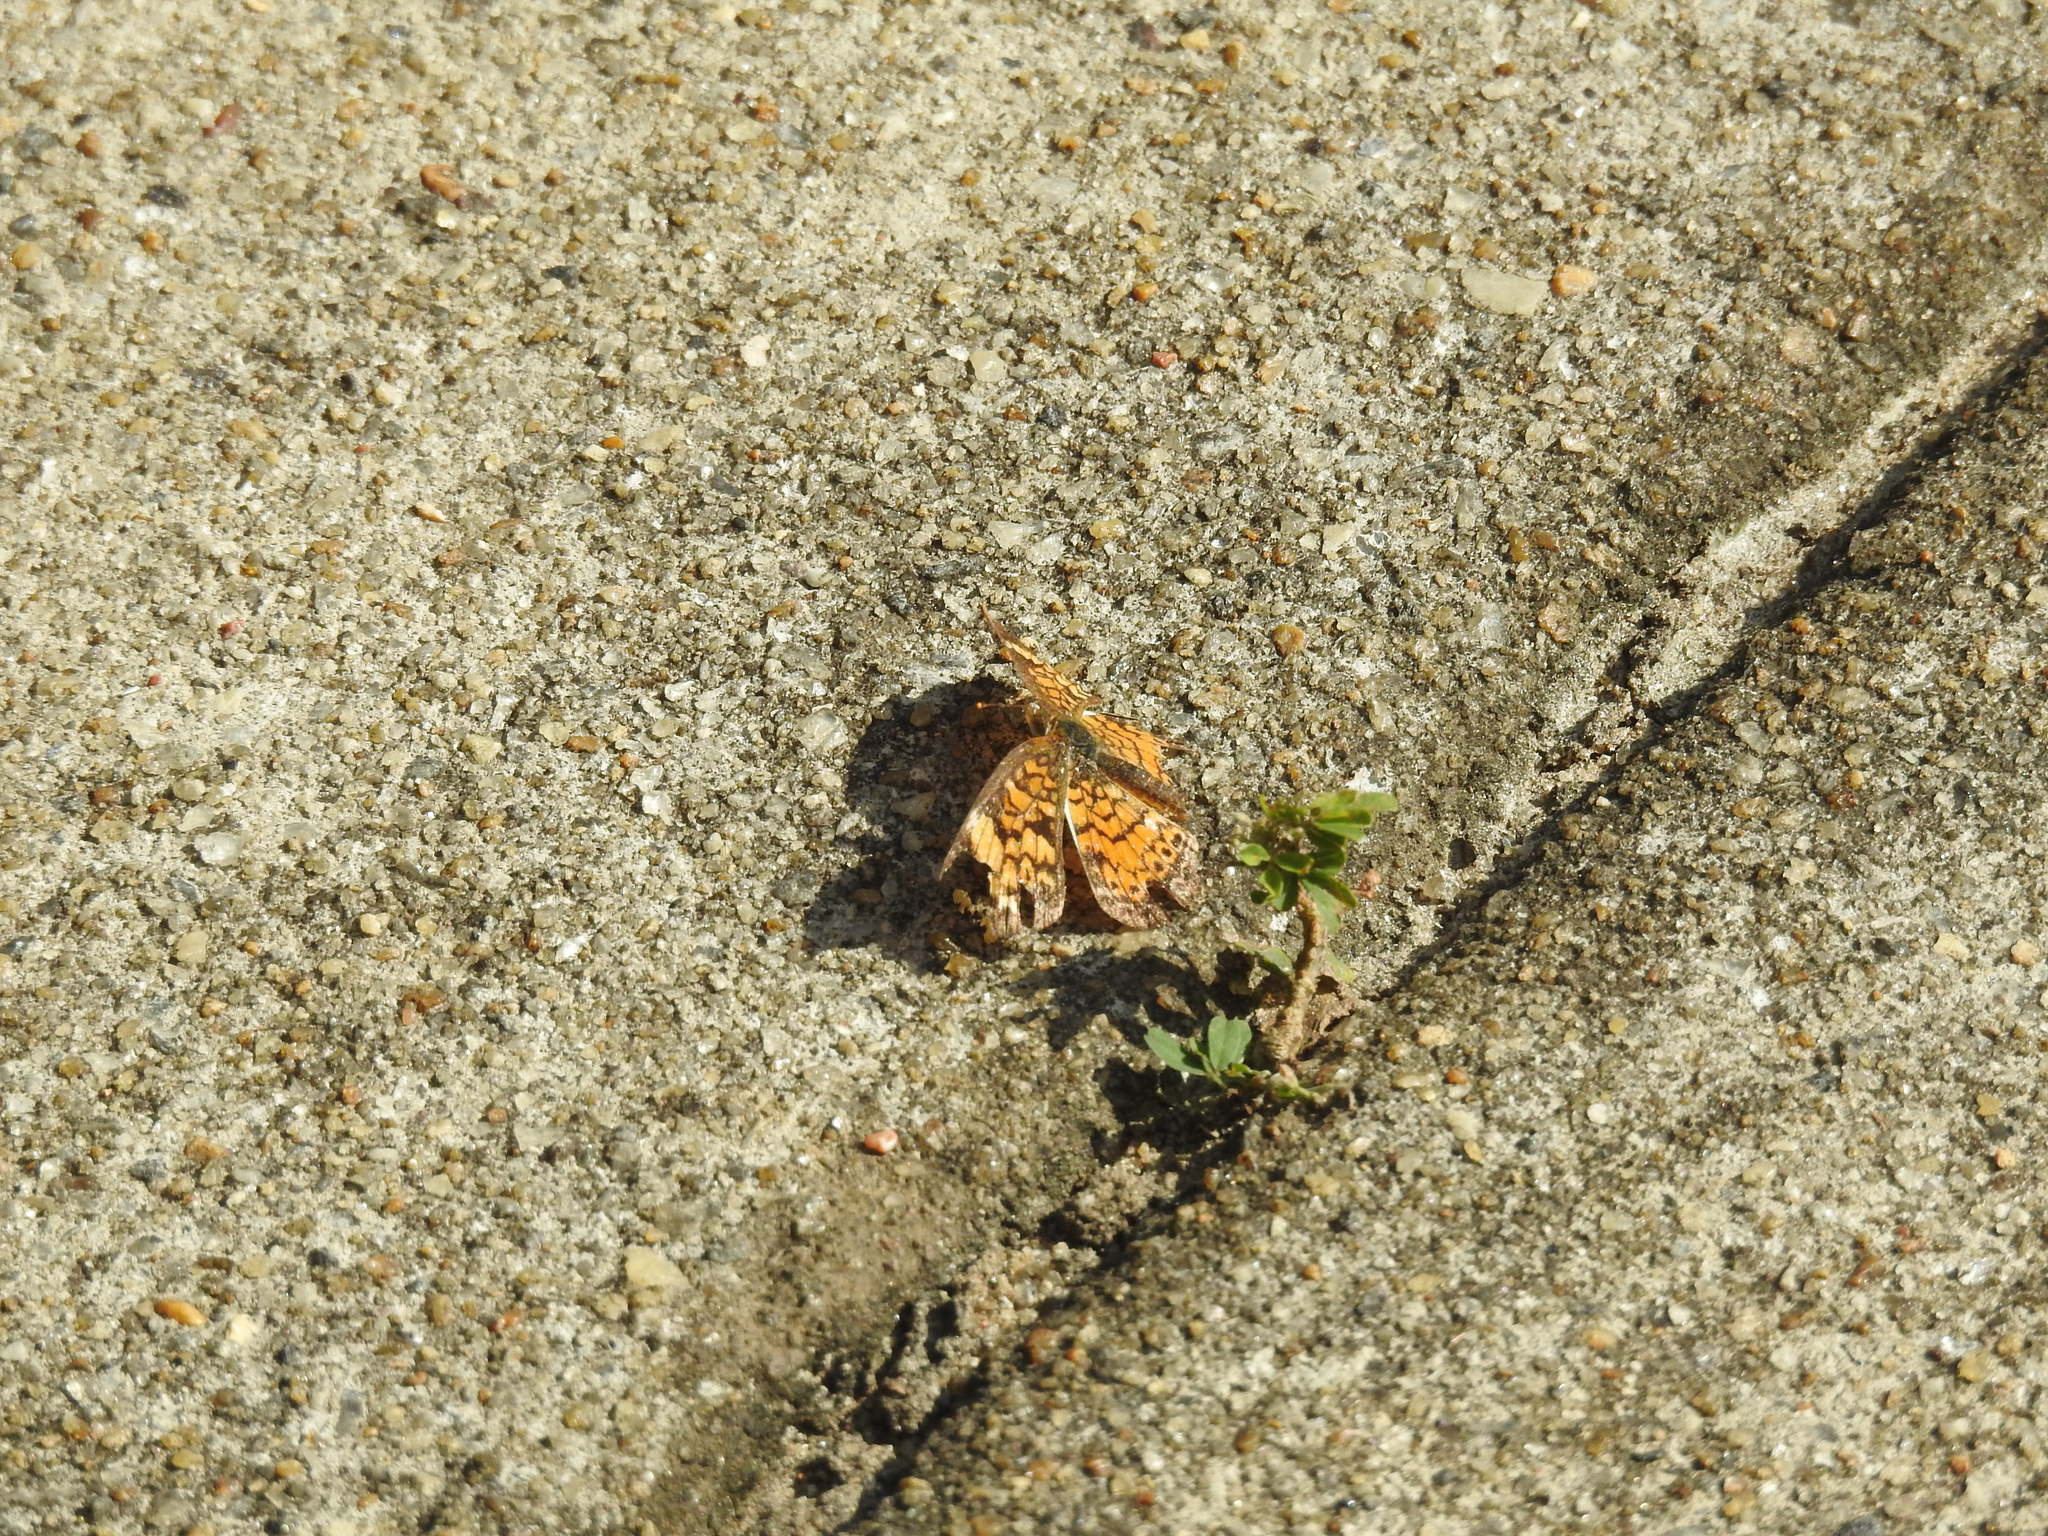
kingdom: Animalia
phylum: Arthropoda
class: Insecta
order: Lepidoptera
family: Nymphalidae
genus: Phyciodes
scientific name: Phyciodes tharos
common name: Pearl crescent
